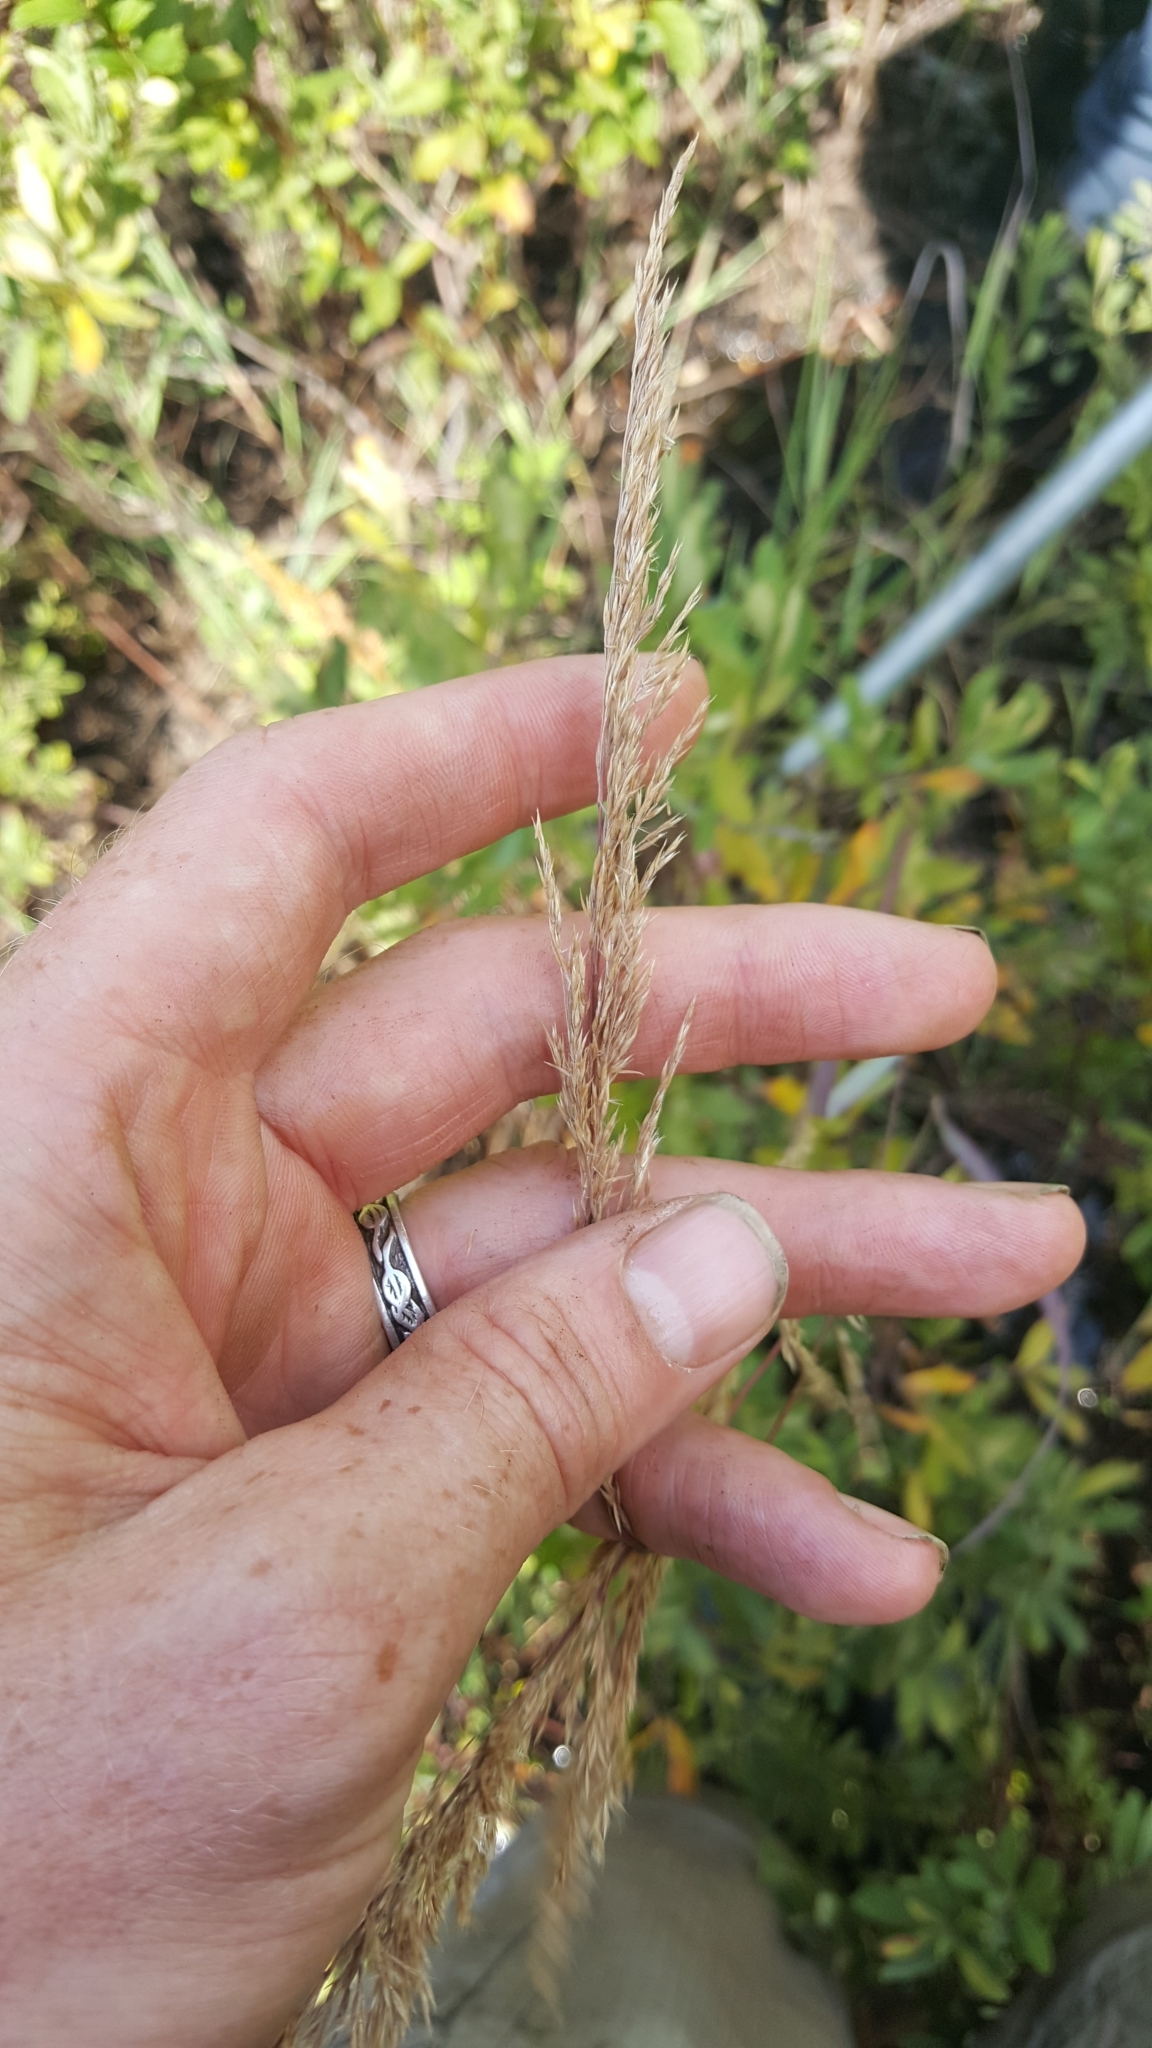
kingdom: Plantae
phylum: Tracheophyta
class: Liliopsida
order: Poales
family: Poaceae
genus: Calamagrostis
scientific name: Calamagrostis canadensis
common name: Canada bluejoint
